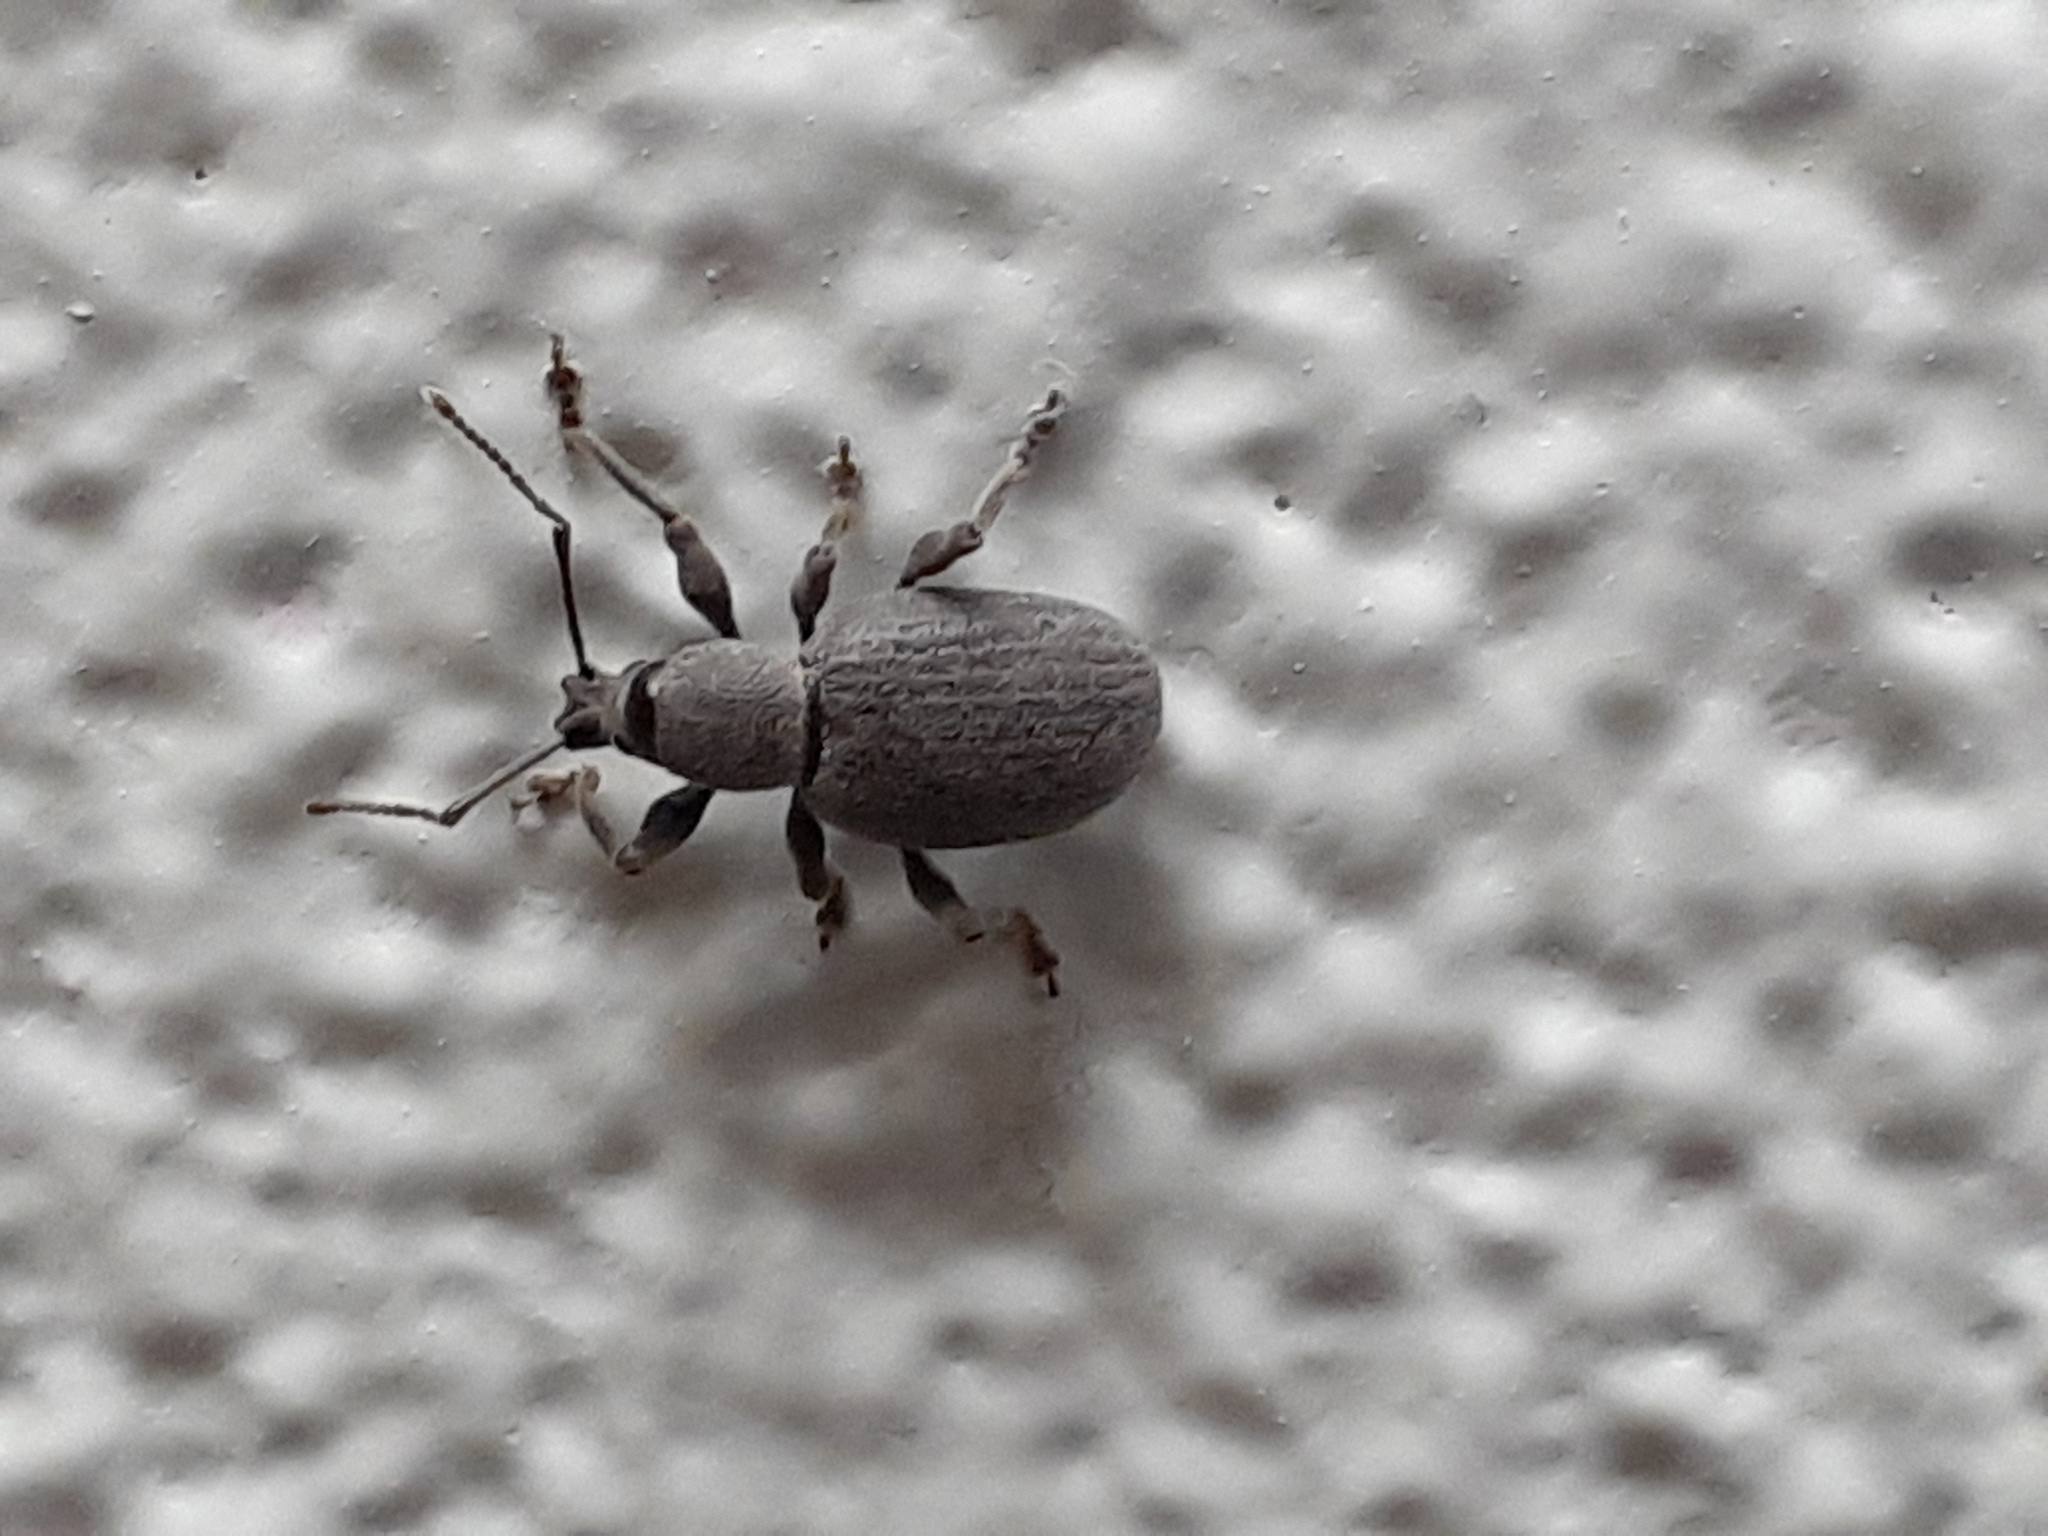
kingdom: Animalia
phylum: Arthropoda
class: Insecta
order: Coleoptera
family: Curculionidae
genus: Otiorhynchus
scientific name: Otiorhynchus meridionalis
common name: Weevil
